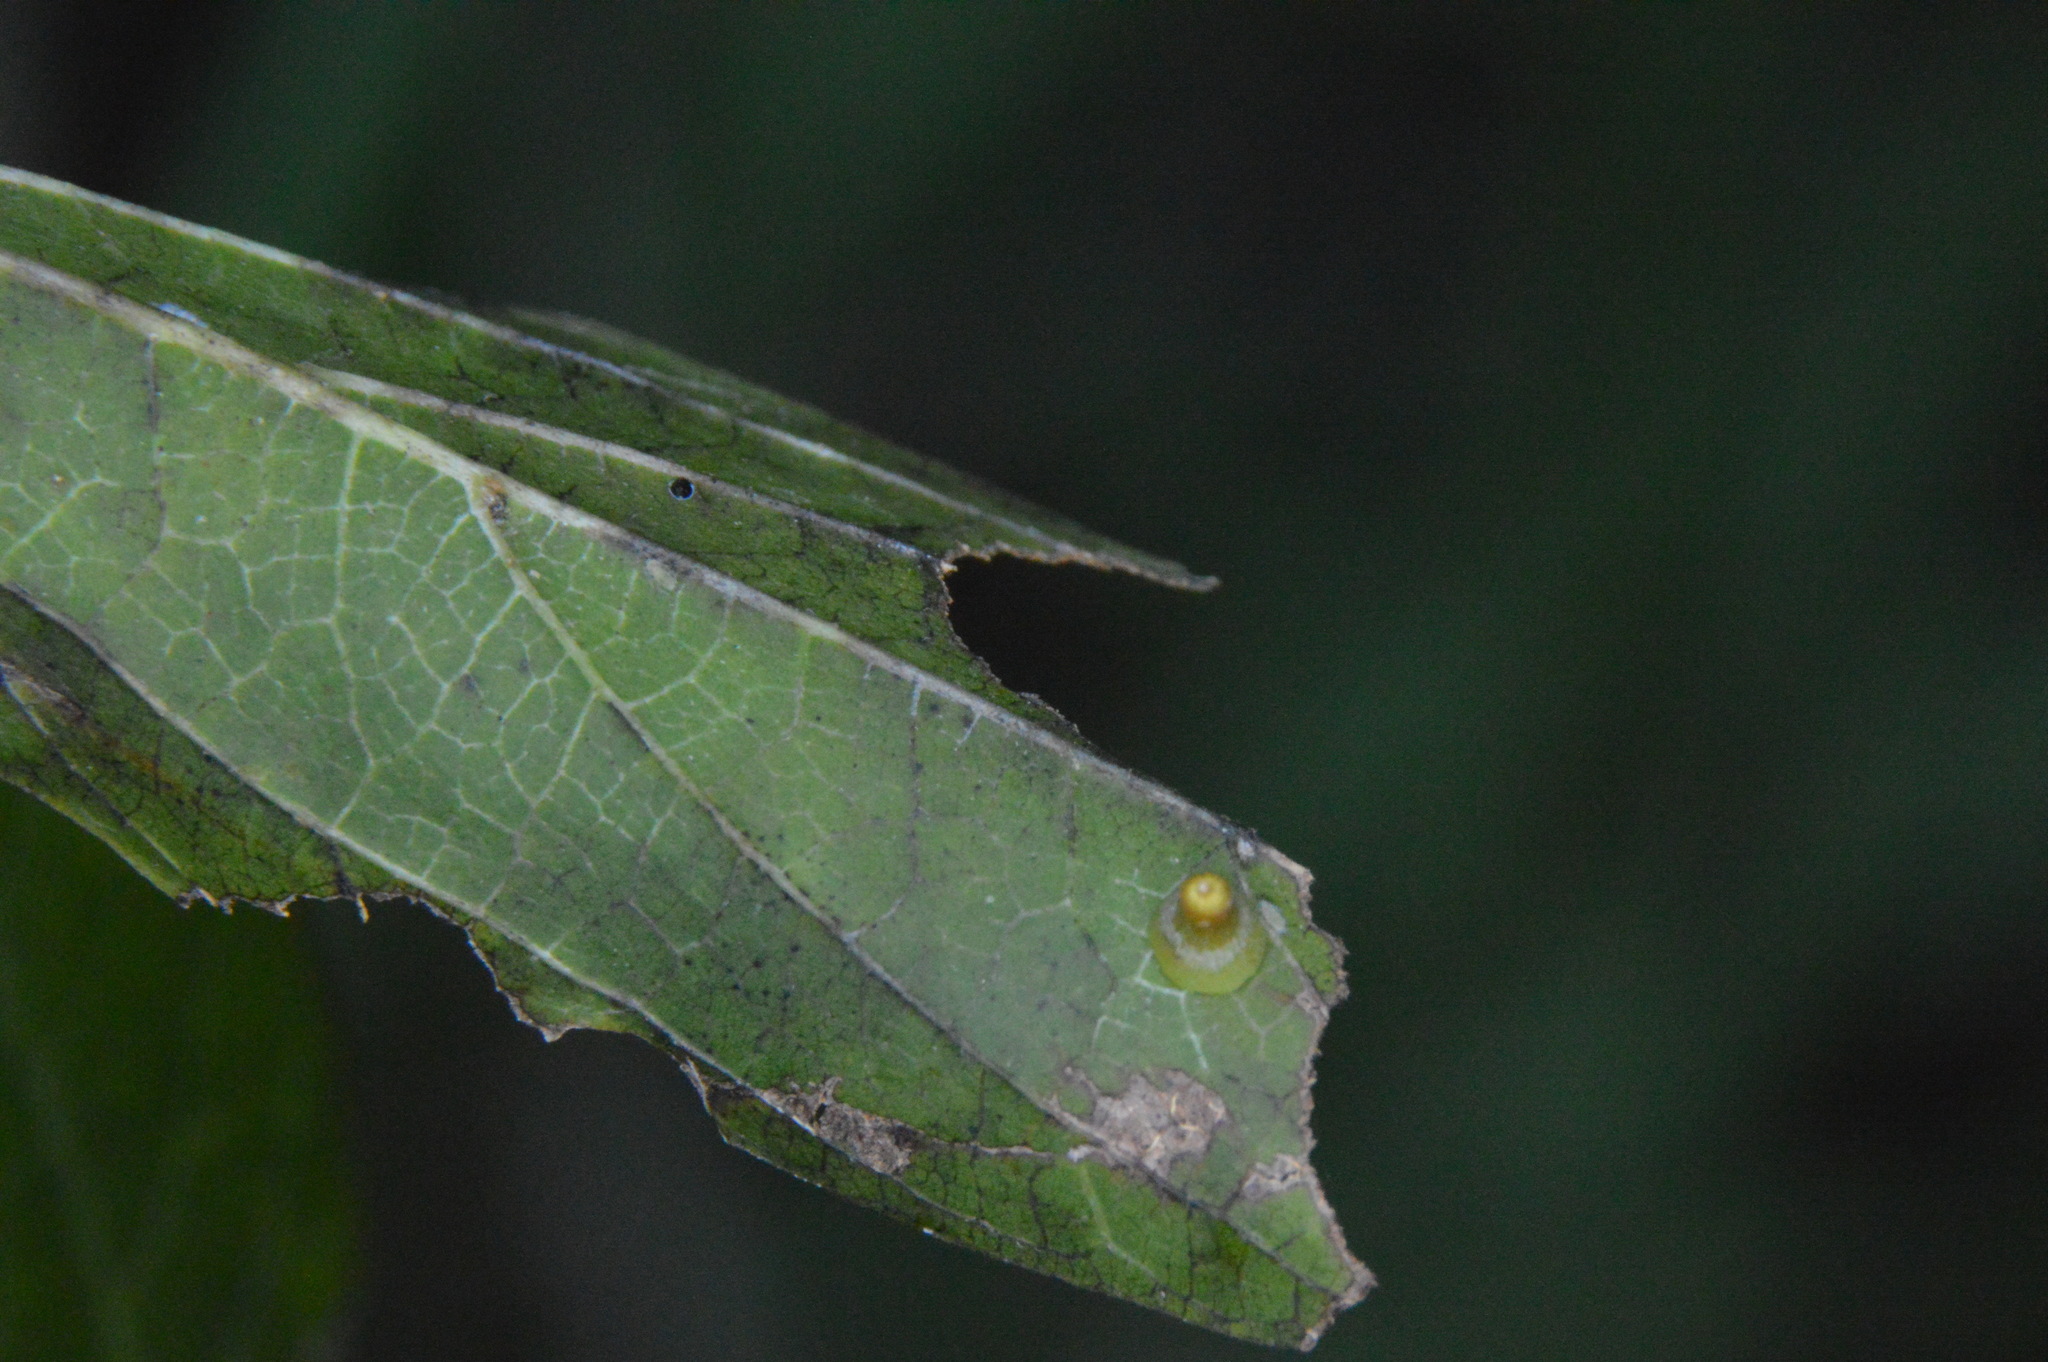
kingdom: Animalia
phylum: Arthropoda
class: Insecta
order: Diptera
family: Cecidomyiidae
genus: Celticecis
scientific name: Celticecis aciculata
